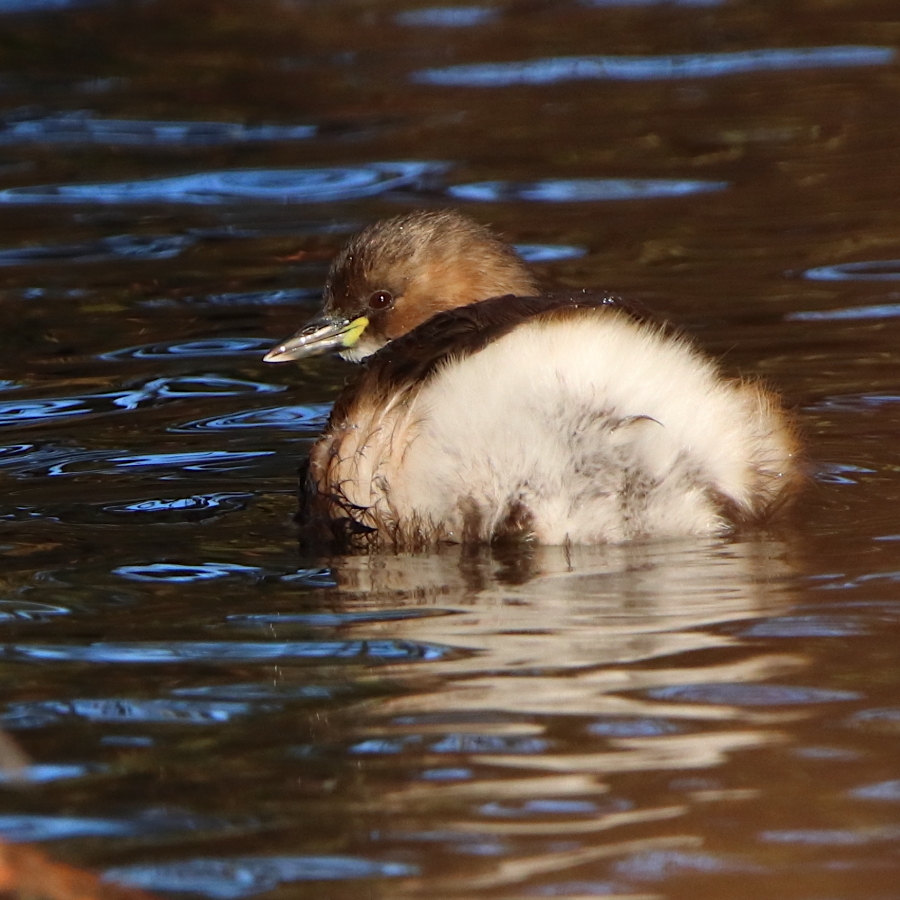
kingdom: Animalia
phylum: Chordata
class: Aves
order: Podicipediformes
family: Podicipedidae
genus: Tachybaptus
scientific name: Tachybaptus ruficollis
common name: Little grebe
